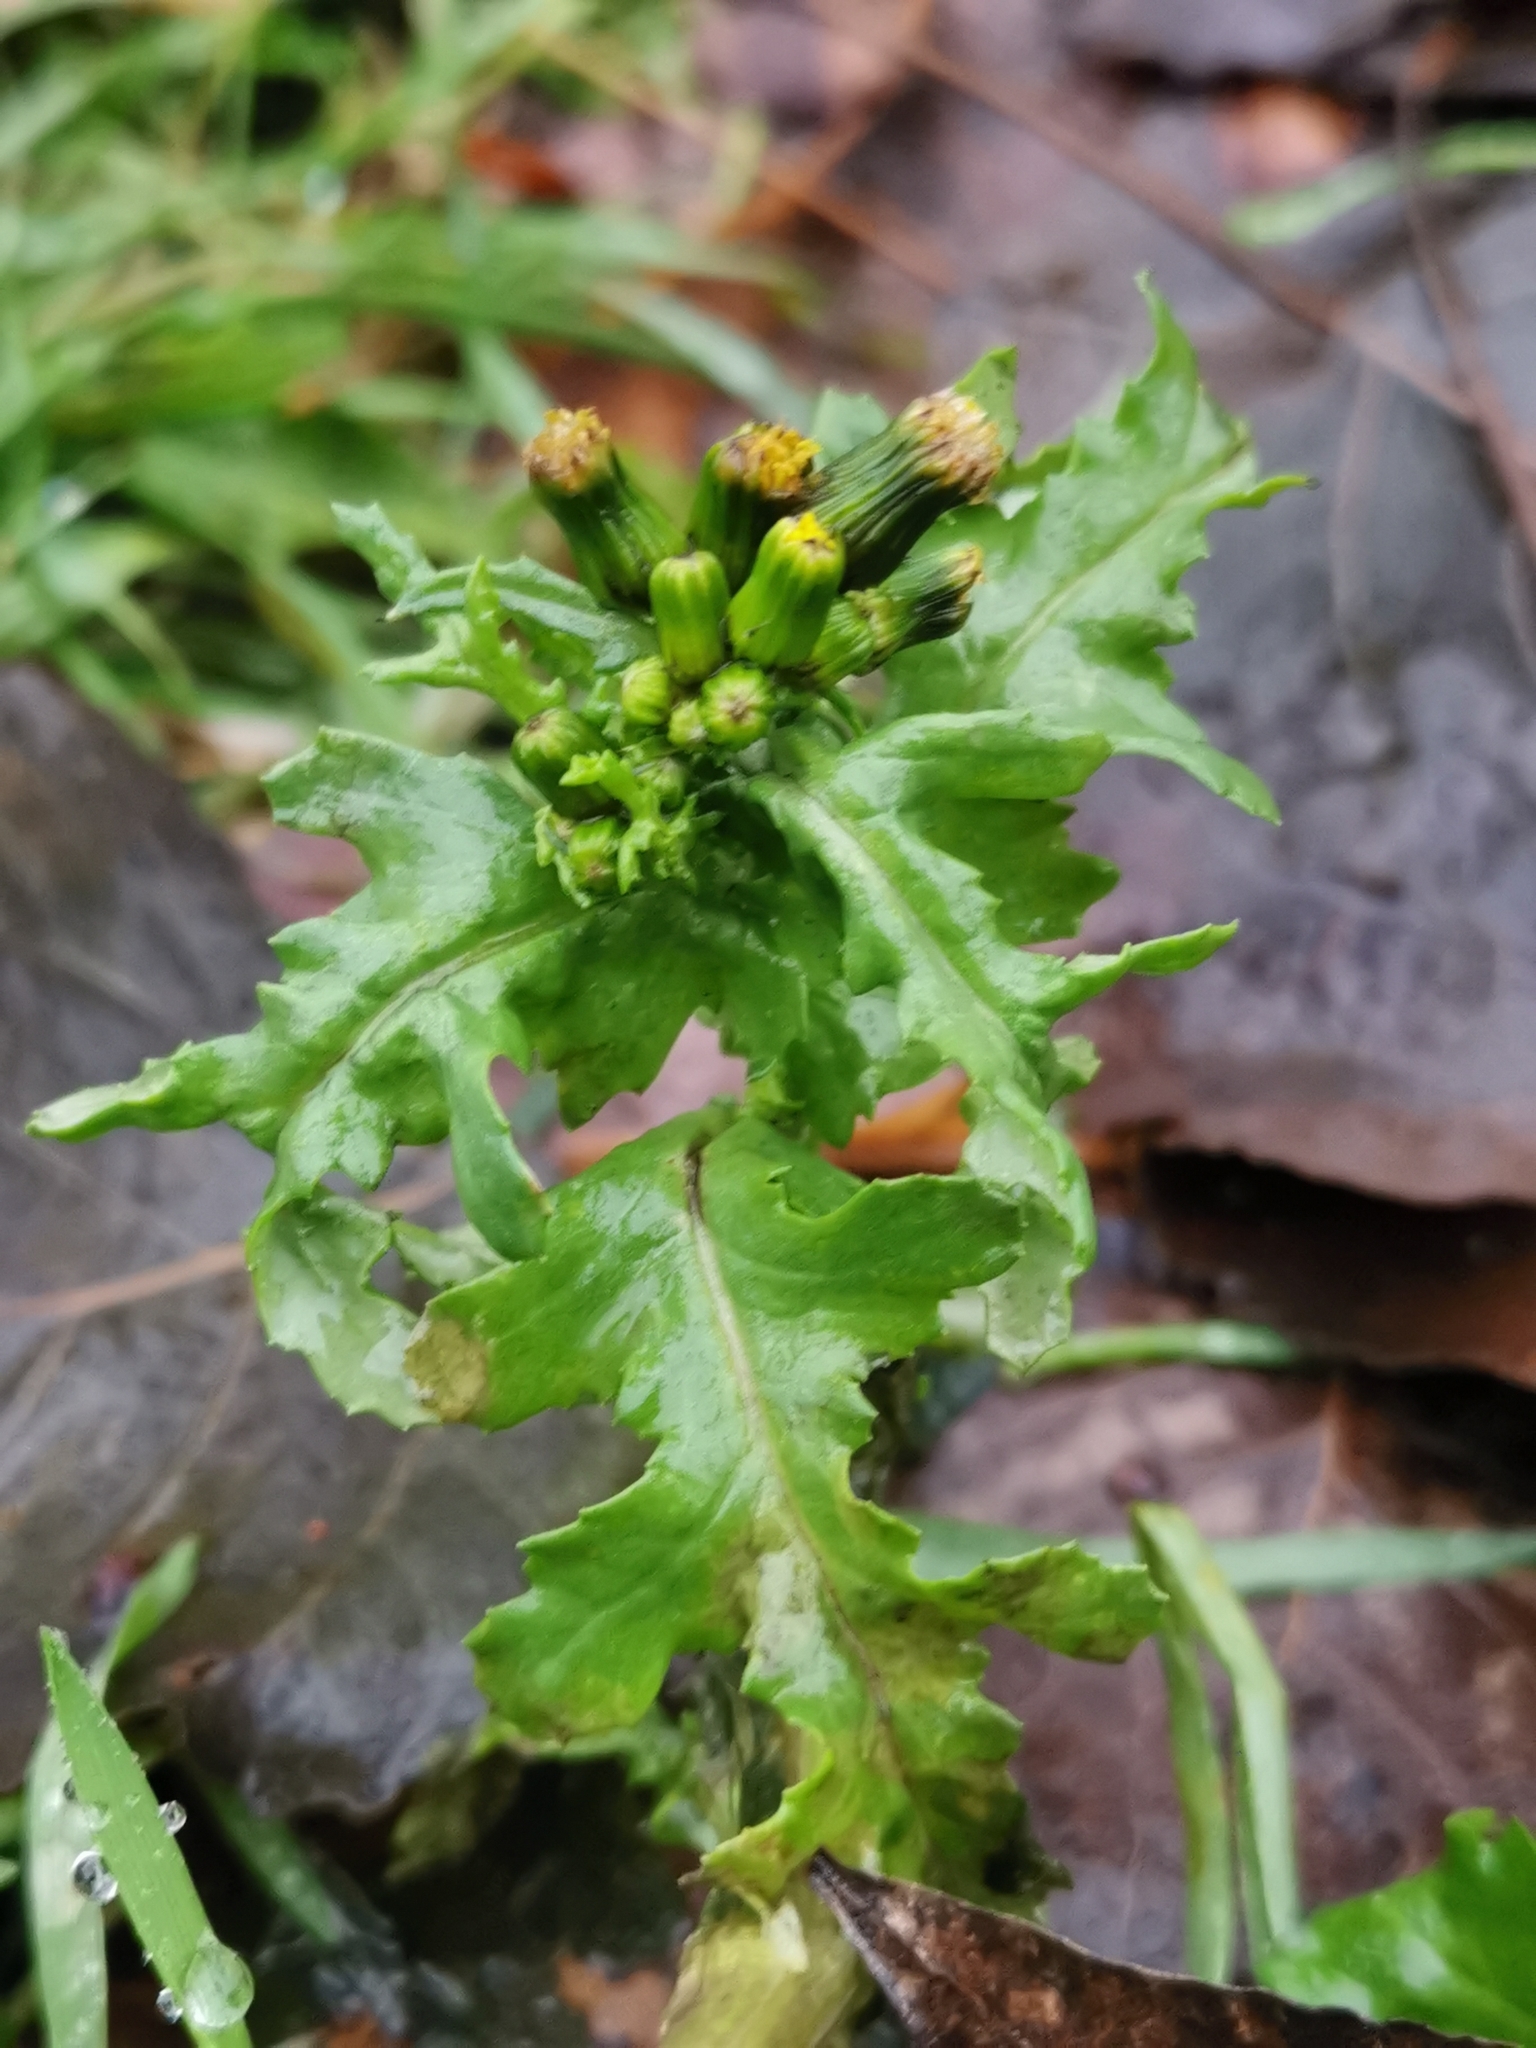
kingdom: Plantae
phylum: Tracheophyta
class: Magnoliopsida
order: Asterales
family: Asteraceae
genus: Senecio
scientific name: Senecio vulgaris
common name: Old-man-in-the-spring
